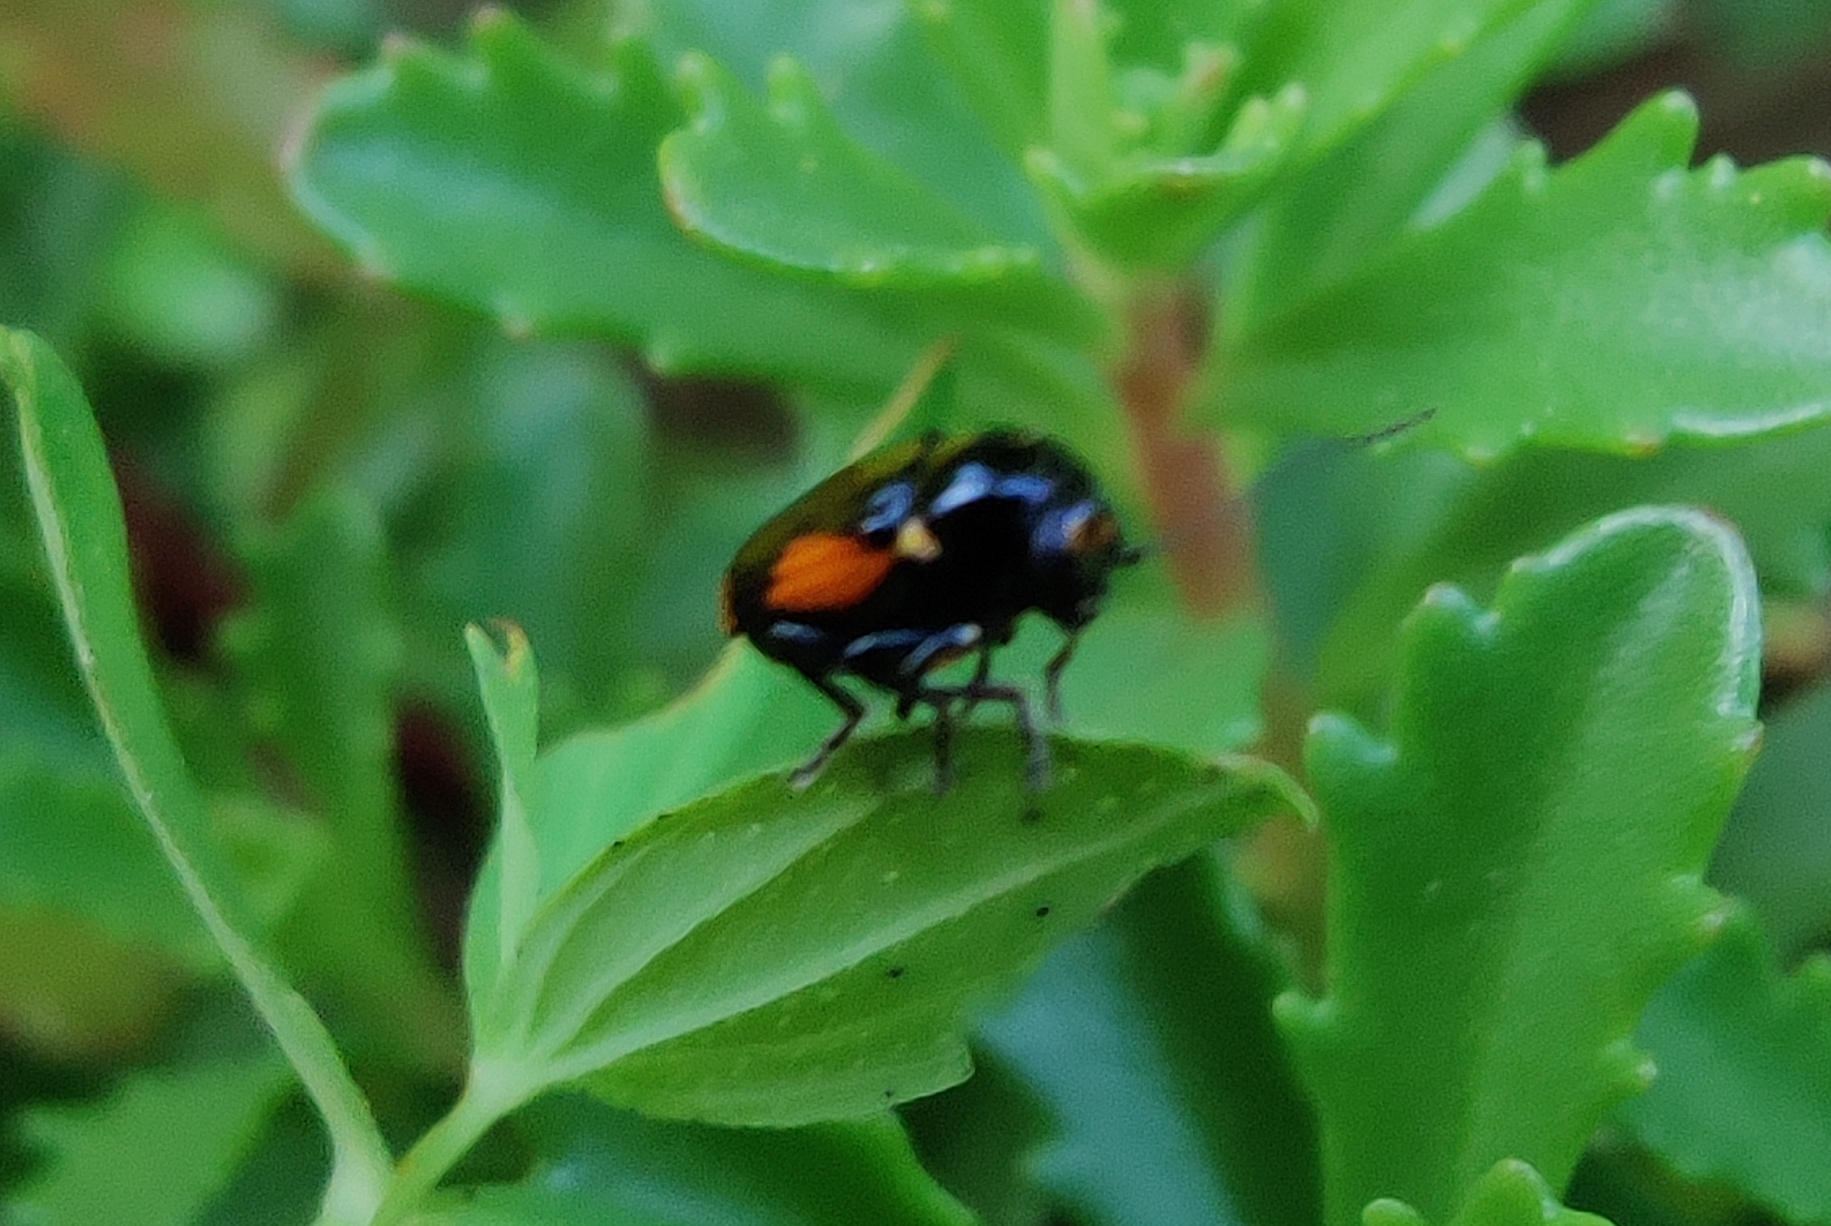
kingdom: Animalia
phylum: Arthropoda
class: Insecta
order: Coleoptera
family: Chrysomelidae
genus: Cryptocephalus
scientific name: Cryptocephalus moraei
